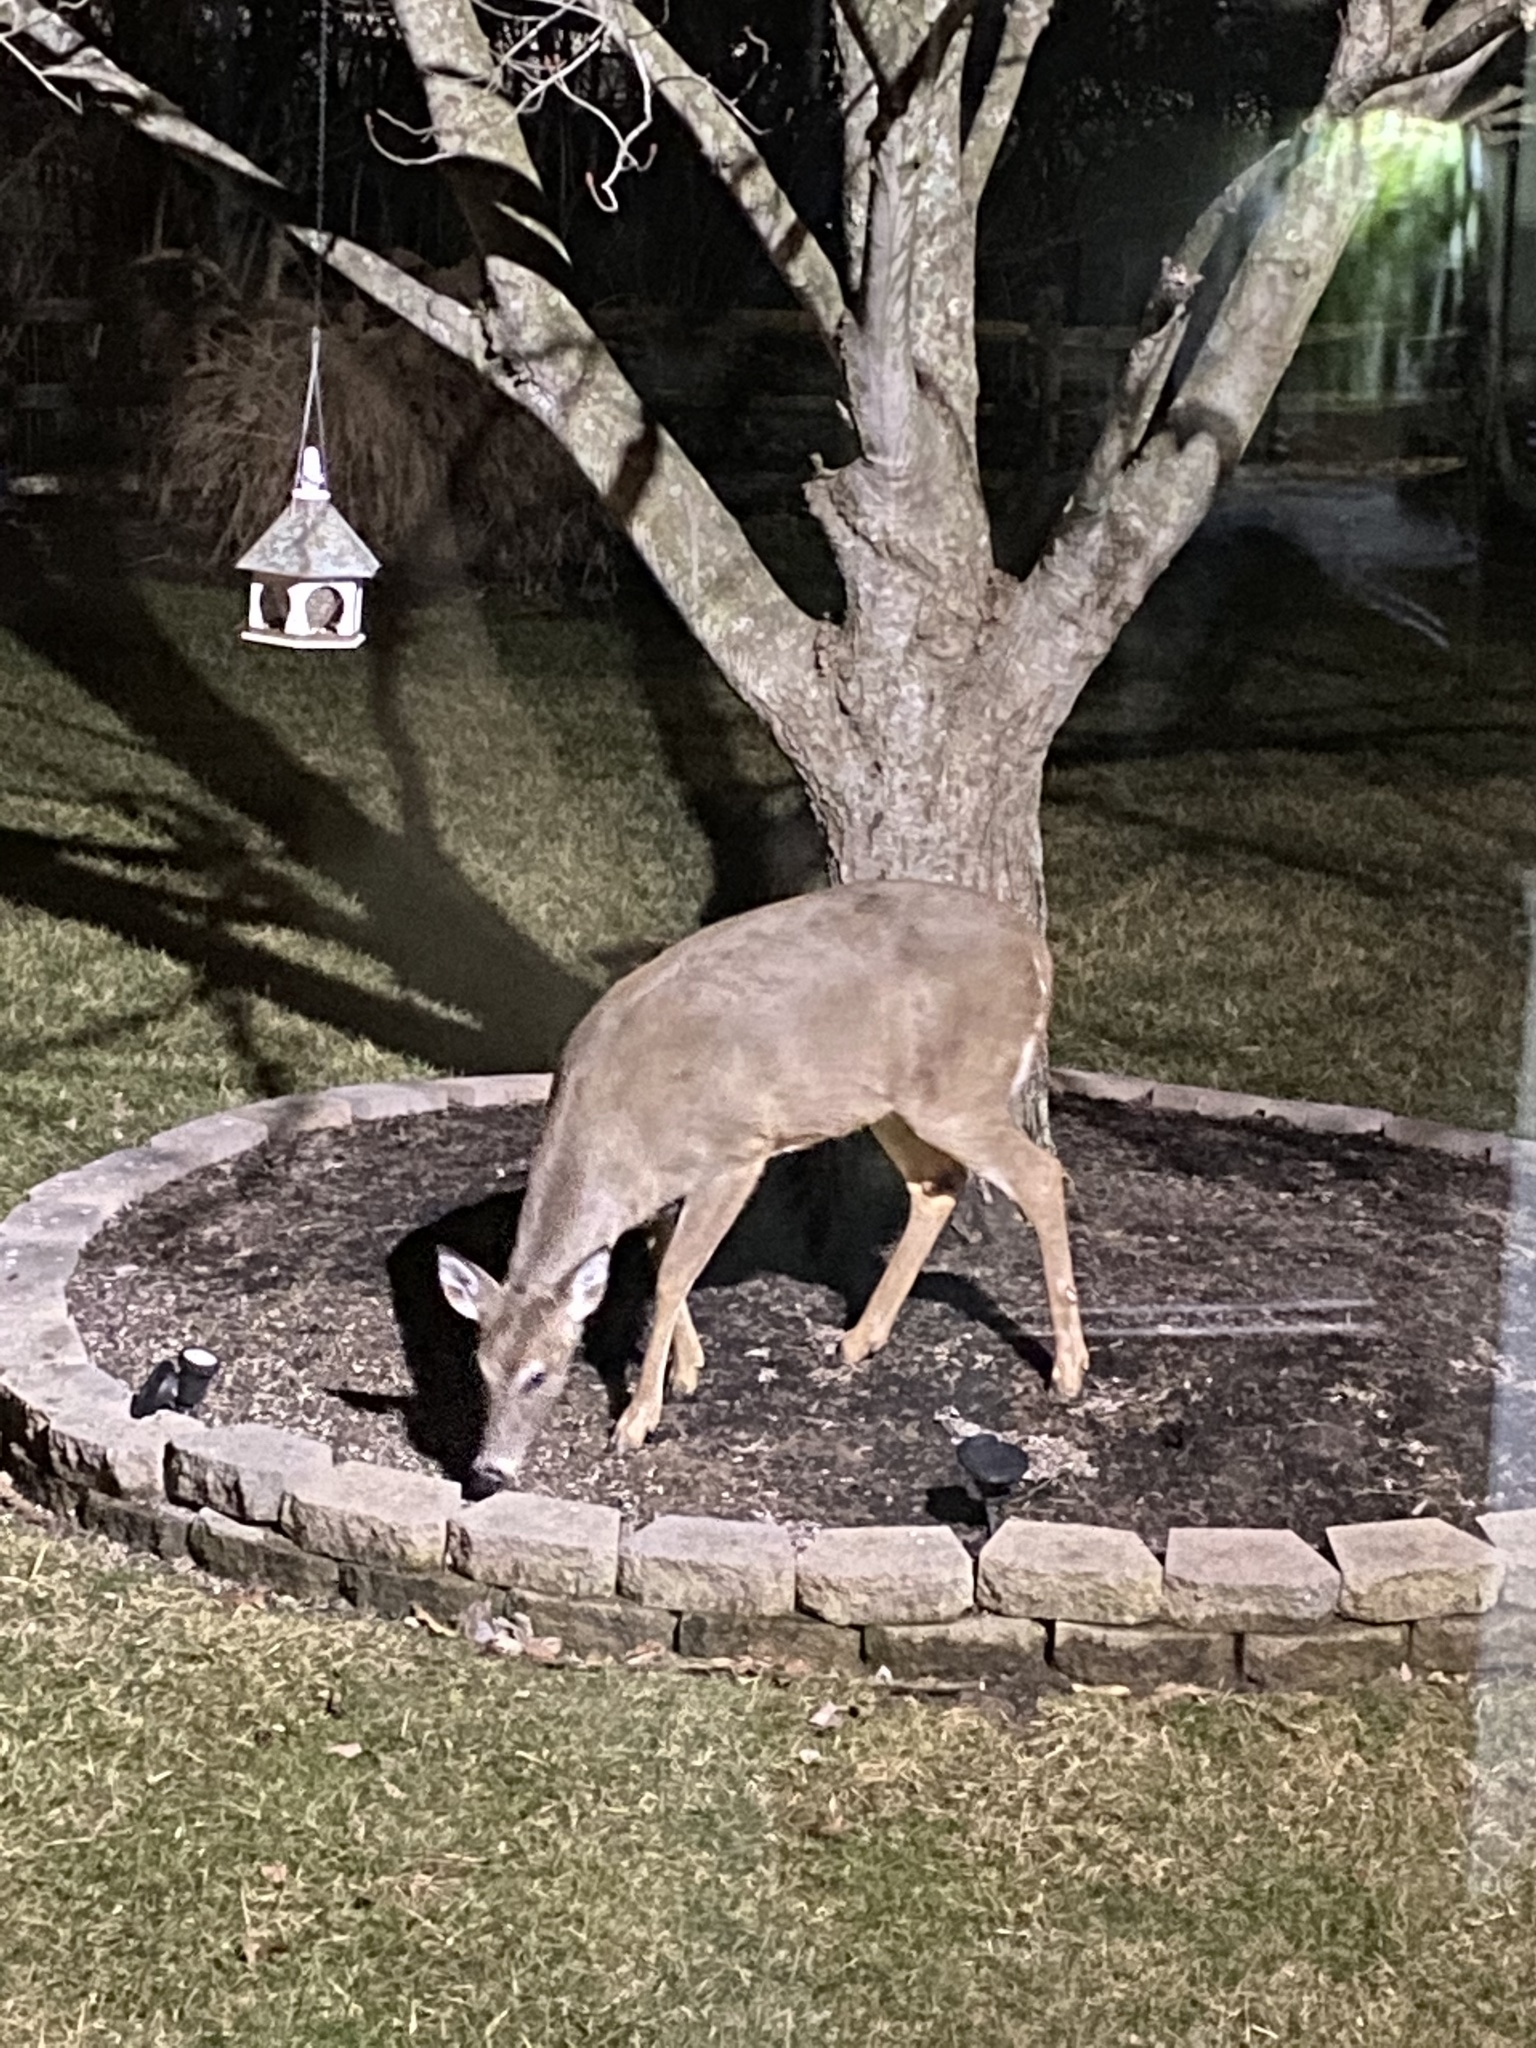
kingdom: Animalia
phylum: Chordata
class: Mammalia
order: Artiodactyla
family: Cervidae
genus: Odocoileus
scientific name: Odocoileus virginianus
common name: White-tailed deer
